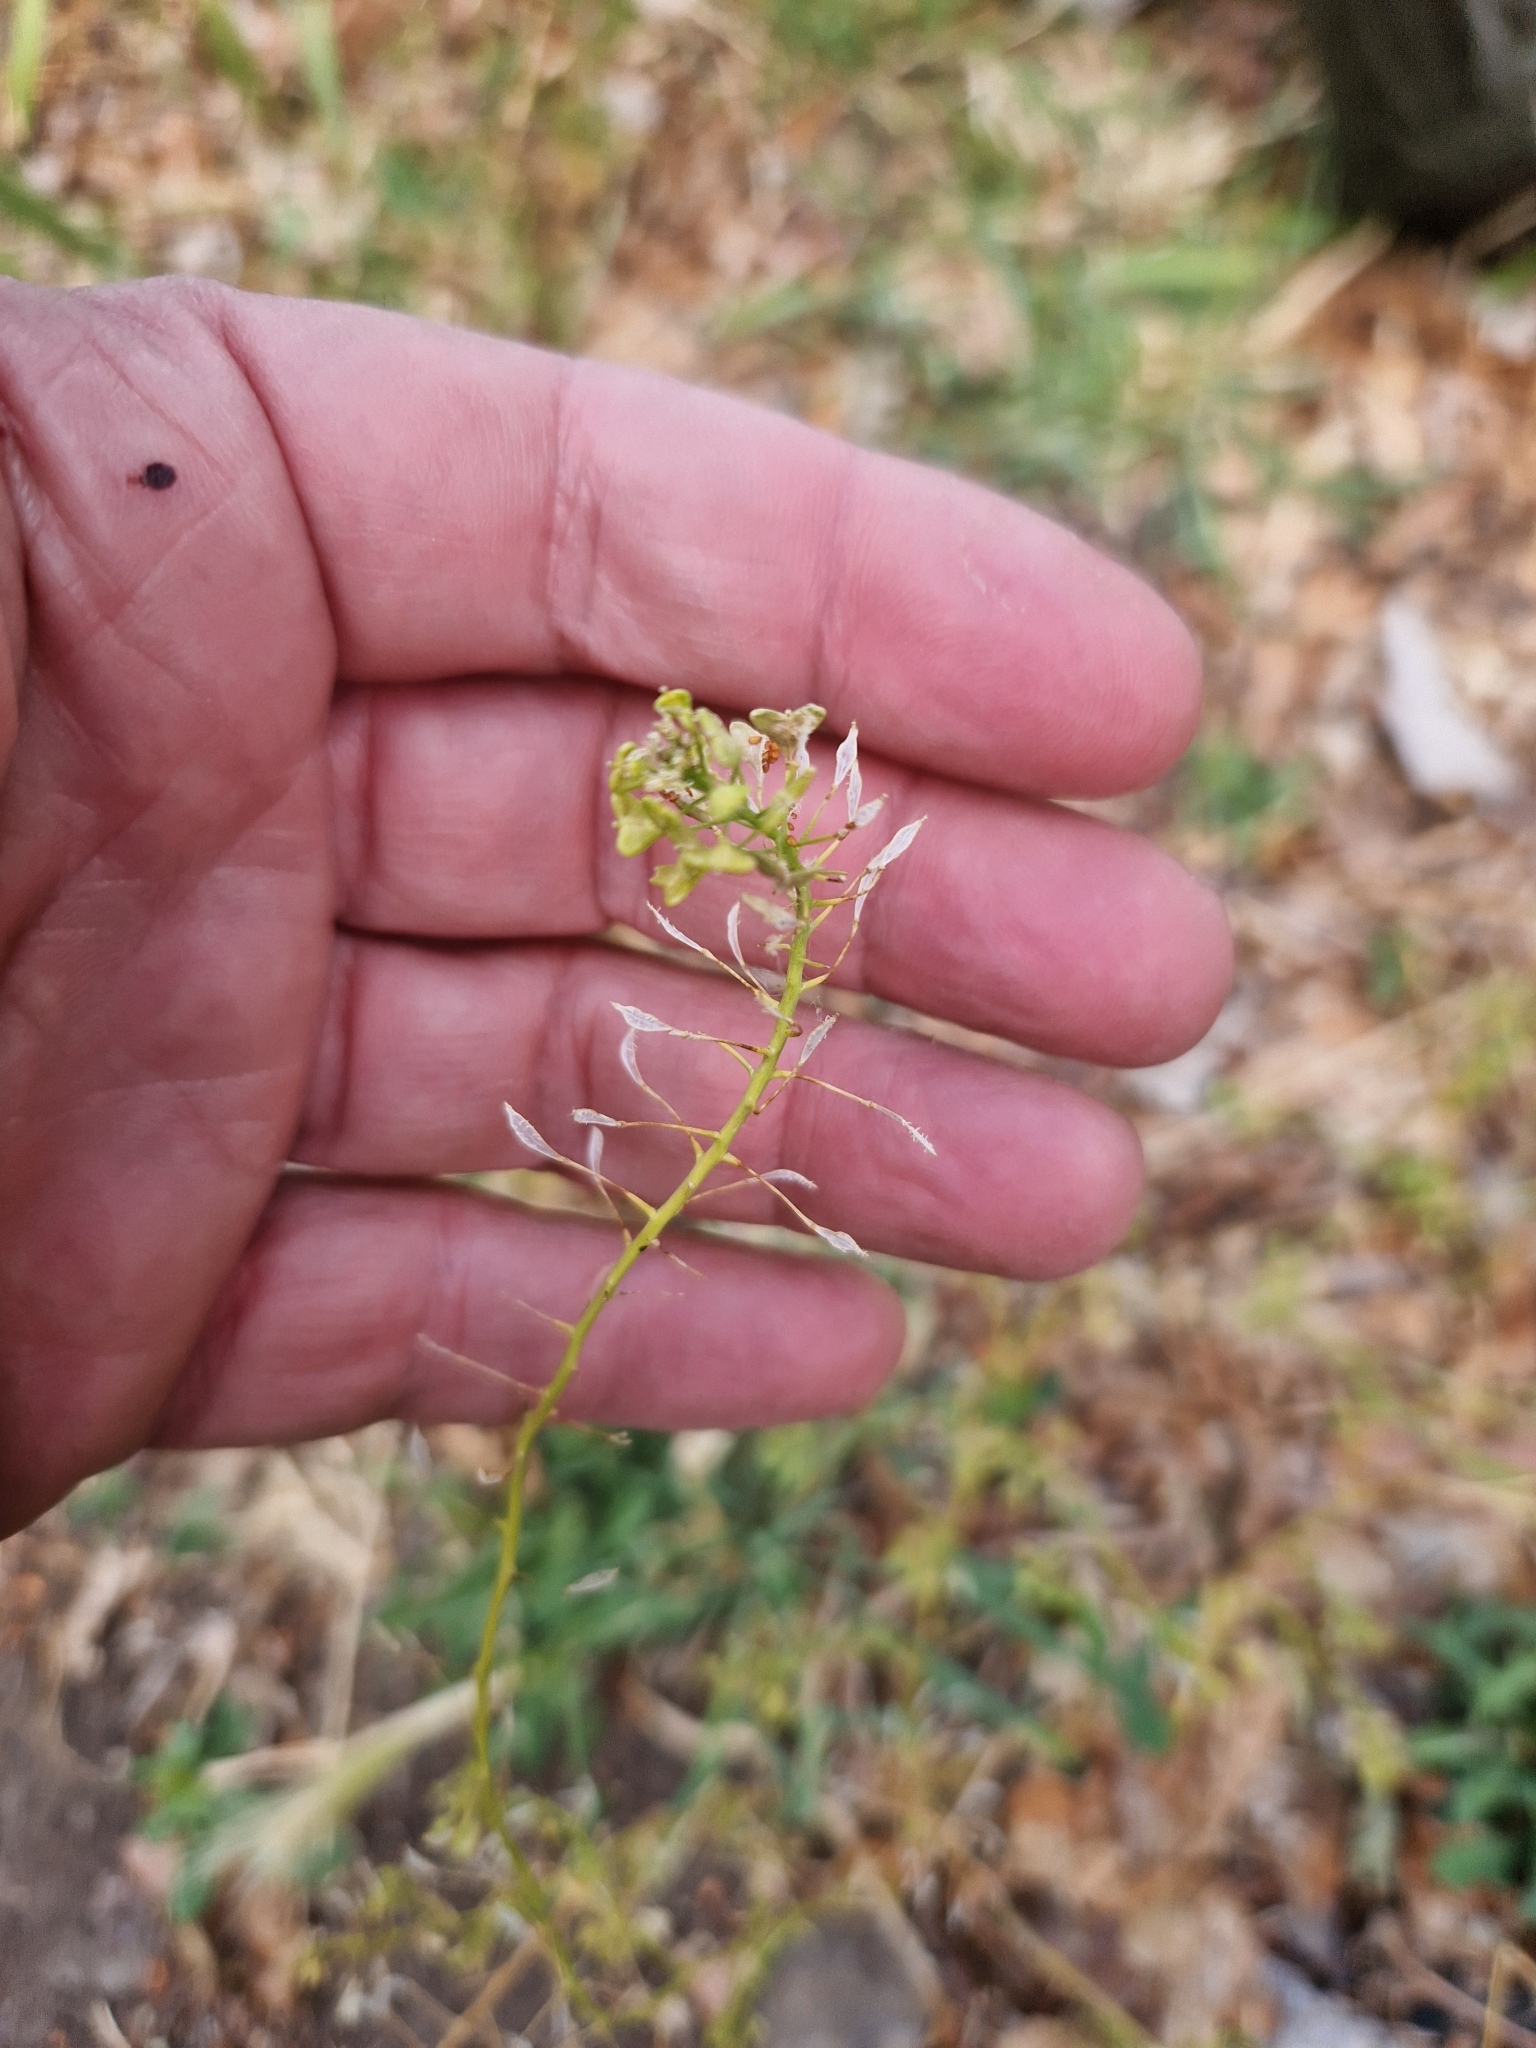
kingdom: Plantae
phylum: Tracheophyta
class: Magnoliopsida
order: Brassicales
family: Brassicaceae
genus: Capsella
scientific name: Capsella bursa-pastoris
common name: Shepherd's purse
